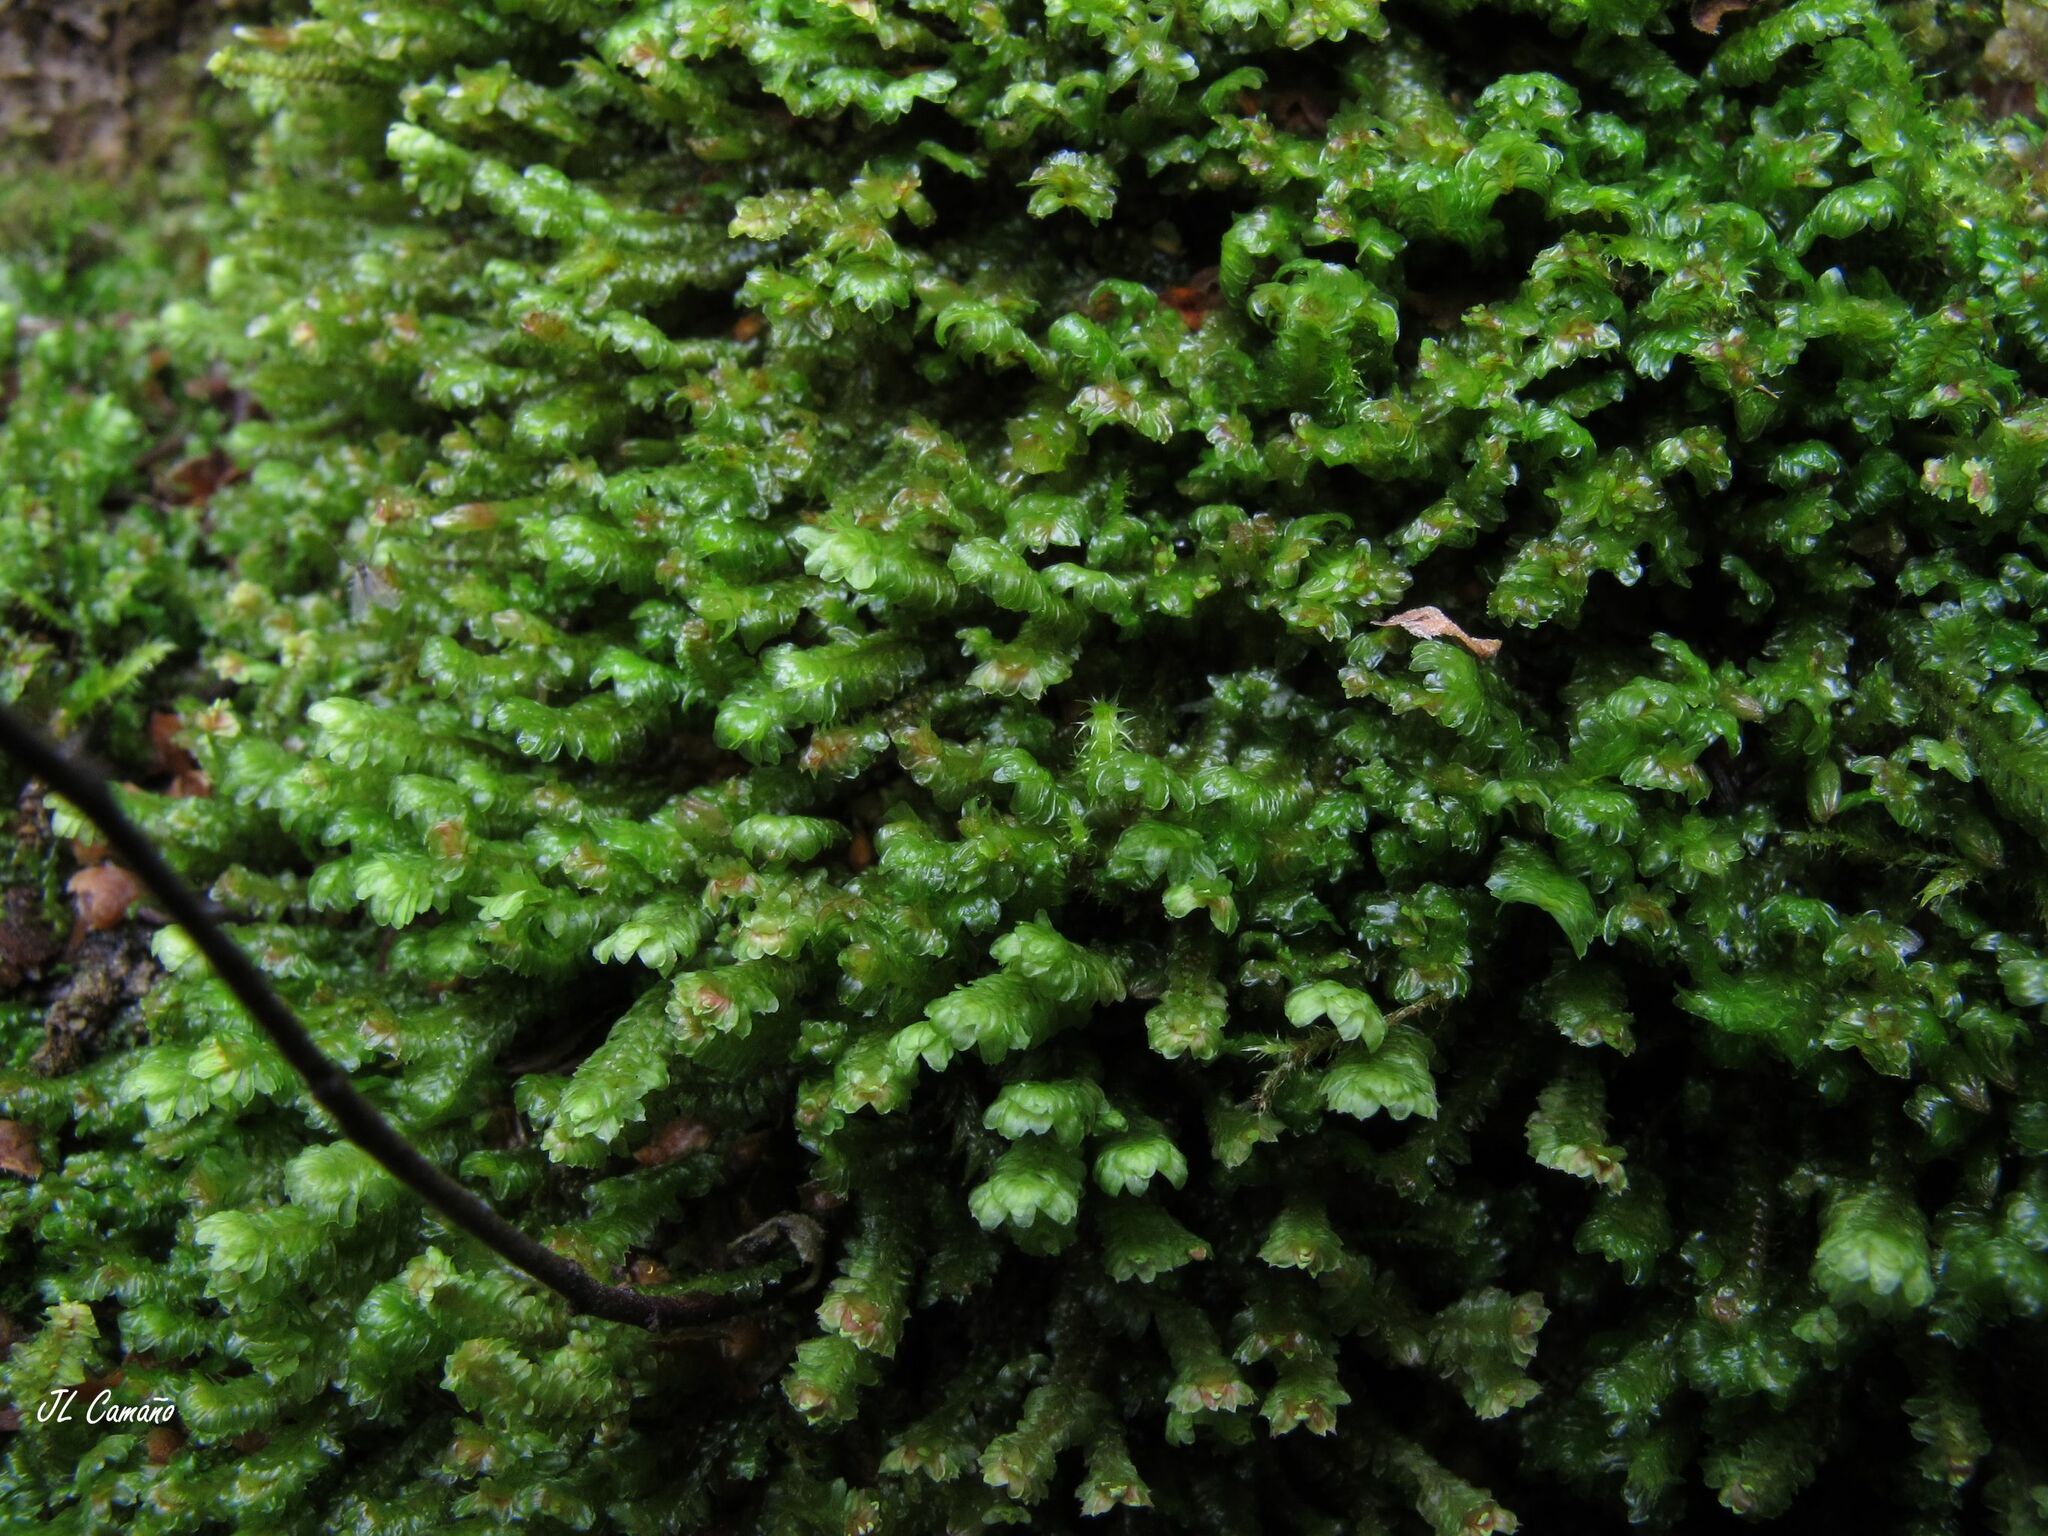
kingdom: Plantae
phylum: Marchantiophyta
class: Jungermanniopsida
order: Jungermanniales
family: Scapaniaceae
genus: Diplophyllum
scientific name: Diplophyllum albicans
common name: White earwort
